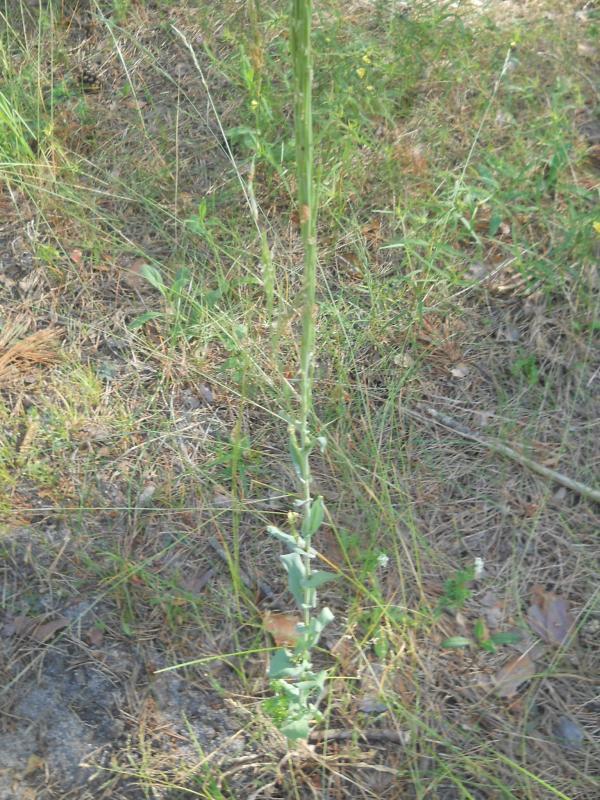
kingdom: Plantae
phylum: Tracheophyta
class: Magnoliopsida
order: Brassicales
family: Brassicaceae
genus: Turritis
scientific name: Turritis glabra
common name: Tower rockcress
